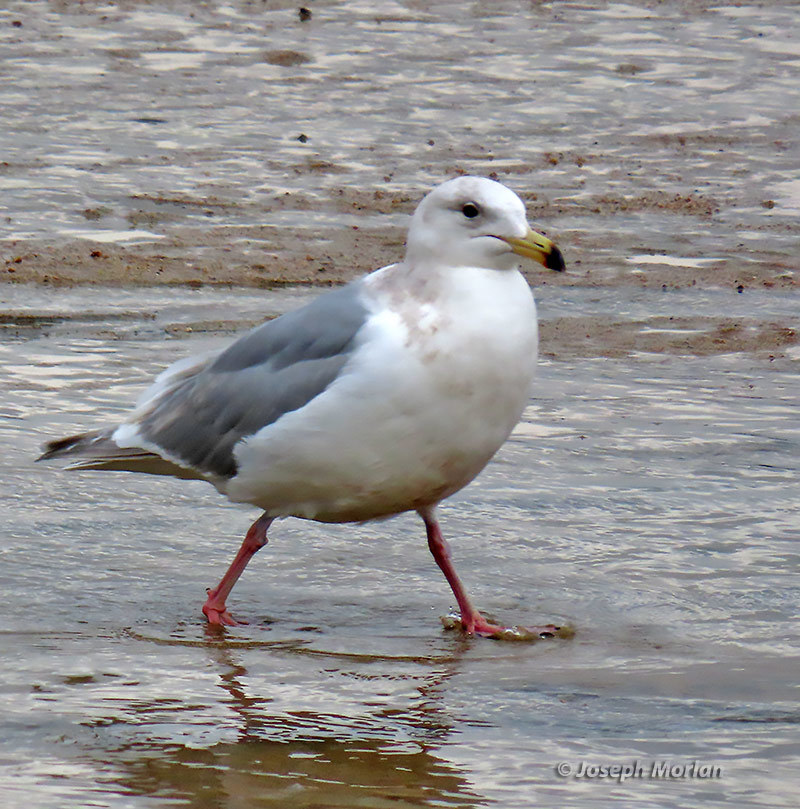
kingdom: Animalia
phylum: Chordata
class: Aves
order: Charadriiformes
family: Laridae
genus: Larus
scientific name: Larus glaucescens
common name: Glaucous-winged gull
